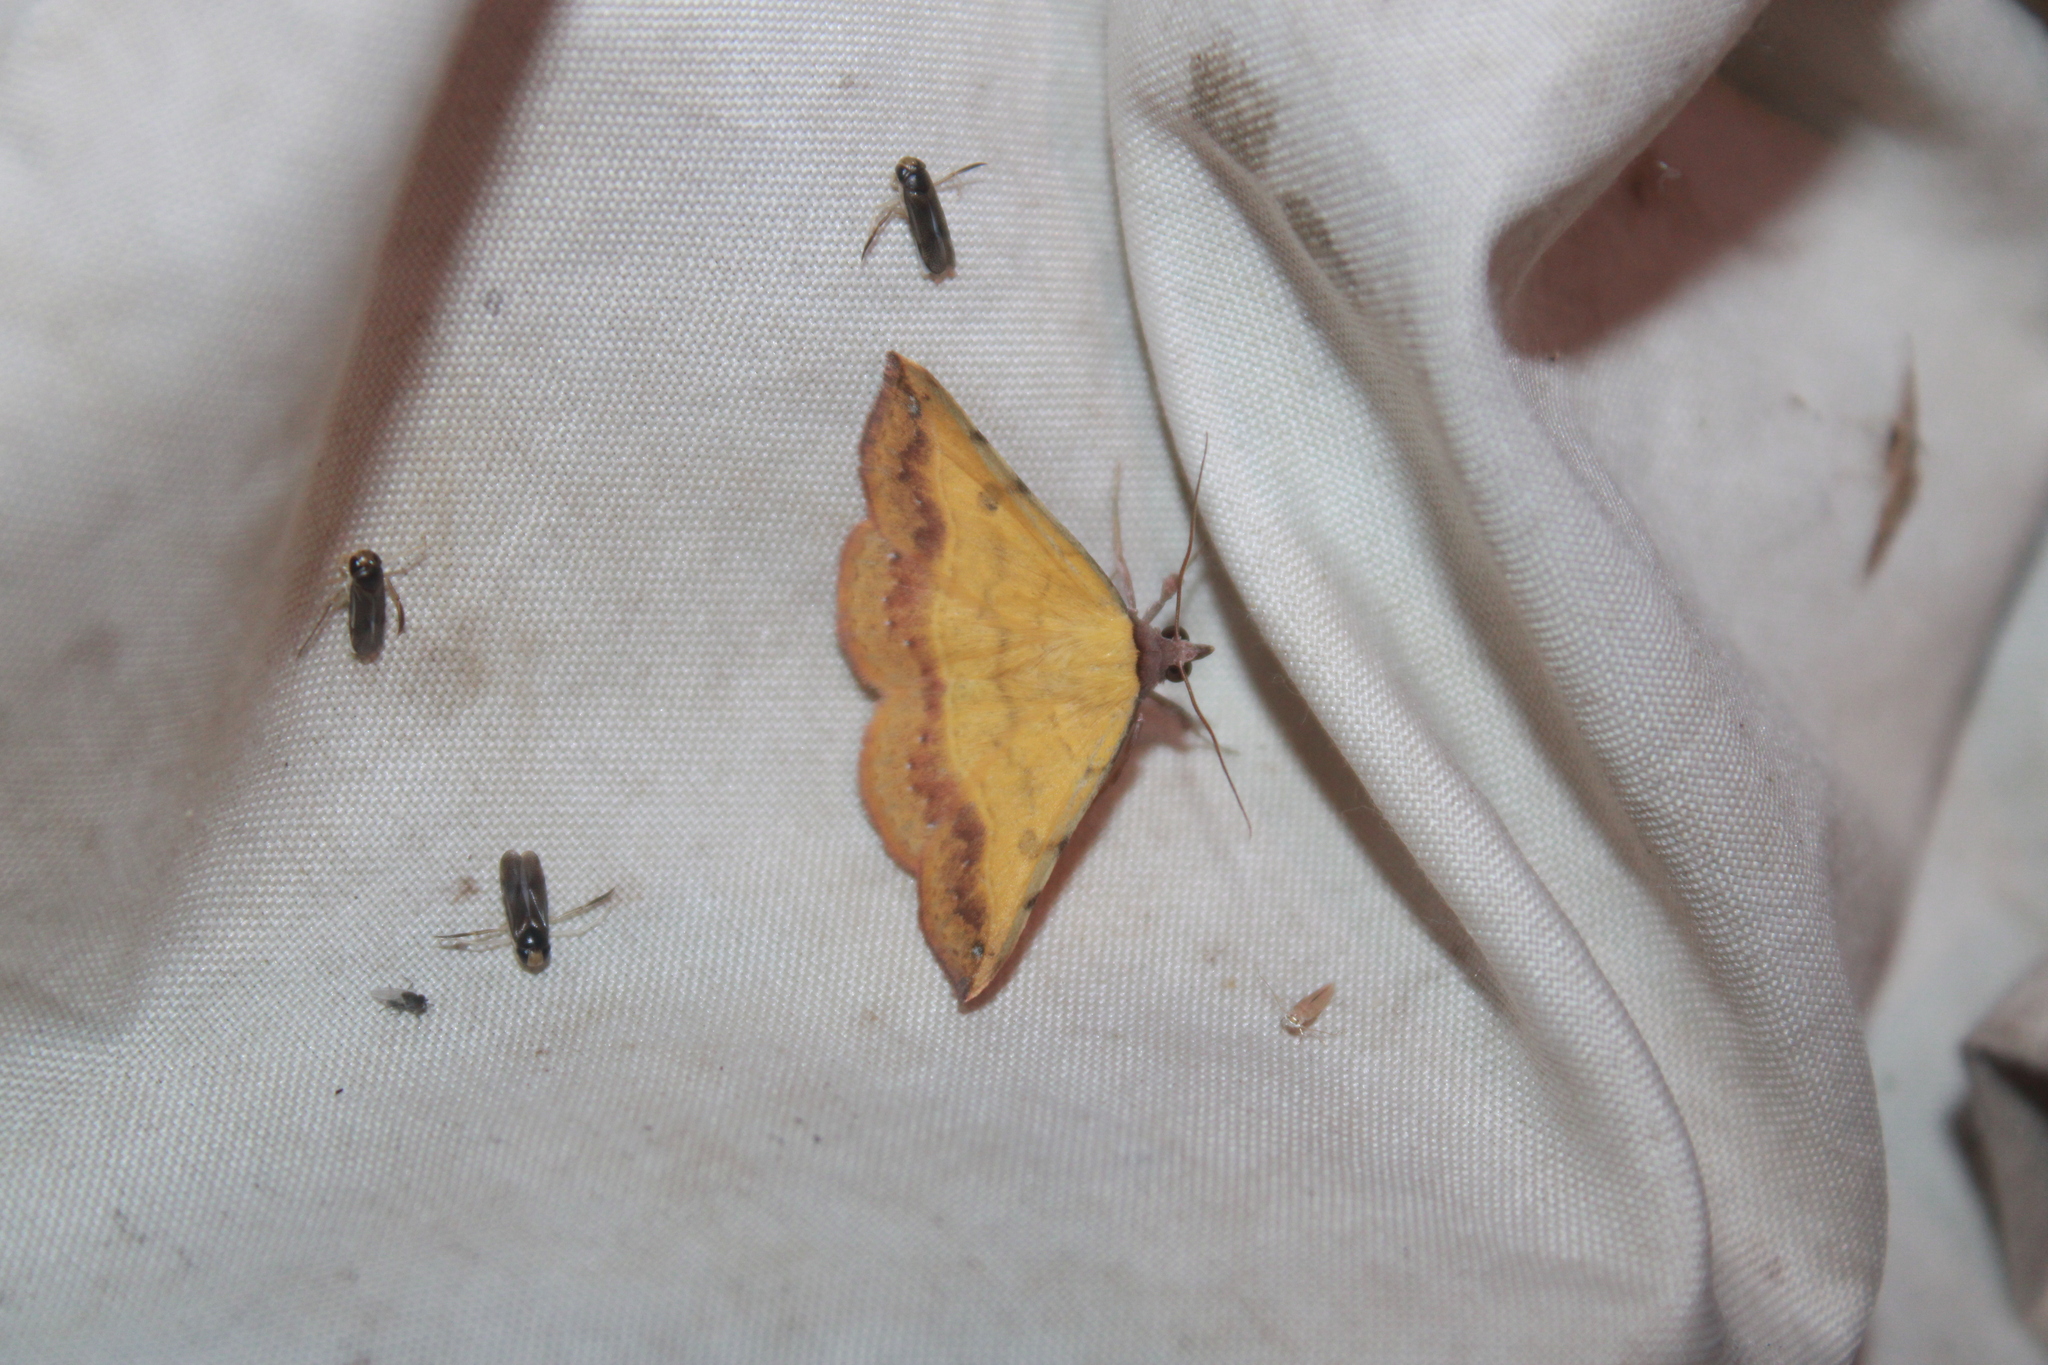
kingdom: Animalia
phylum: Arthropoda
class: Insecta
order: Lepidoptera
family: Erebidae
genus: Hemeroplanis
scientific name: Hemeroplanis scopulepes
